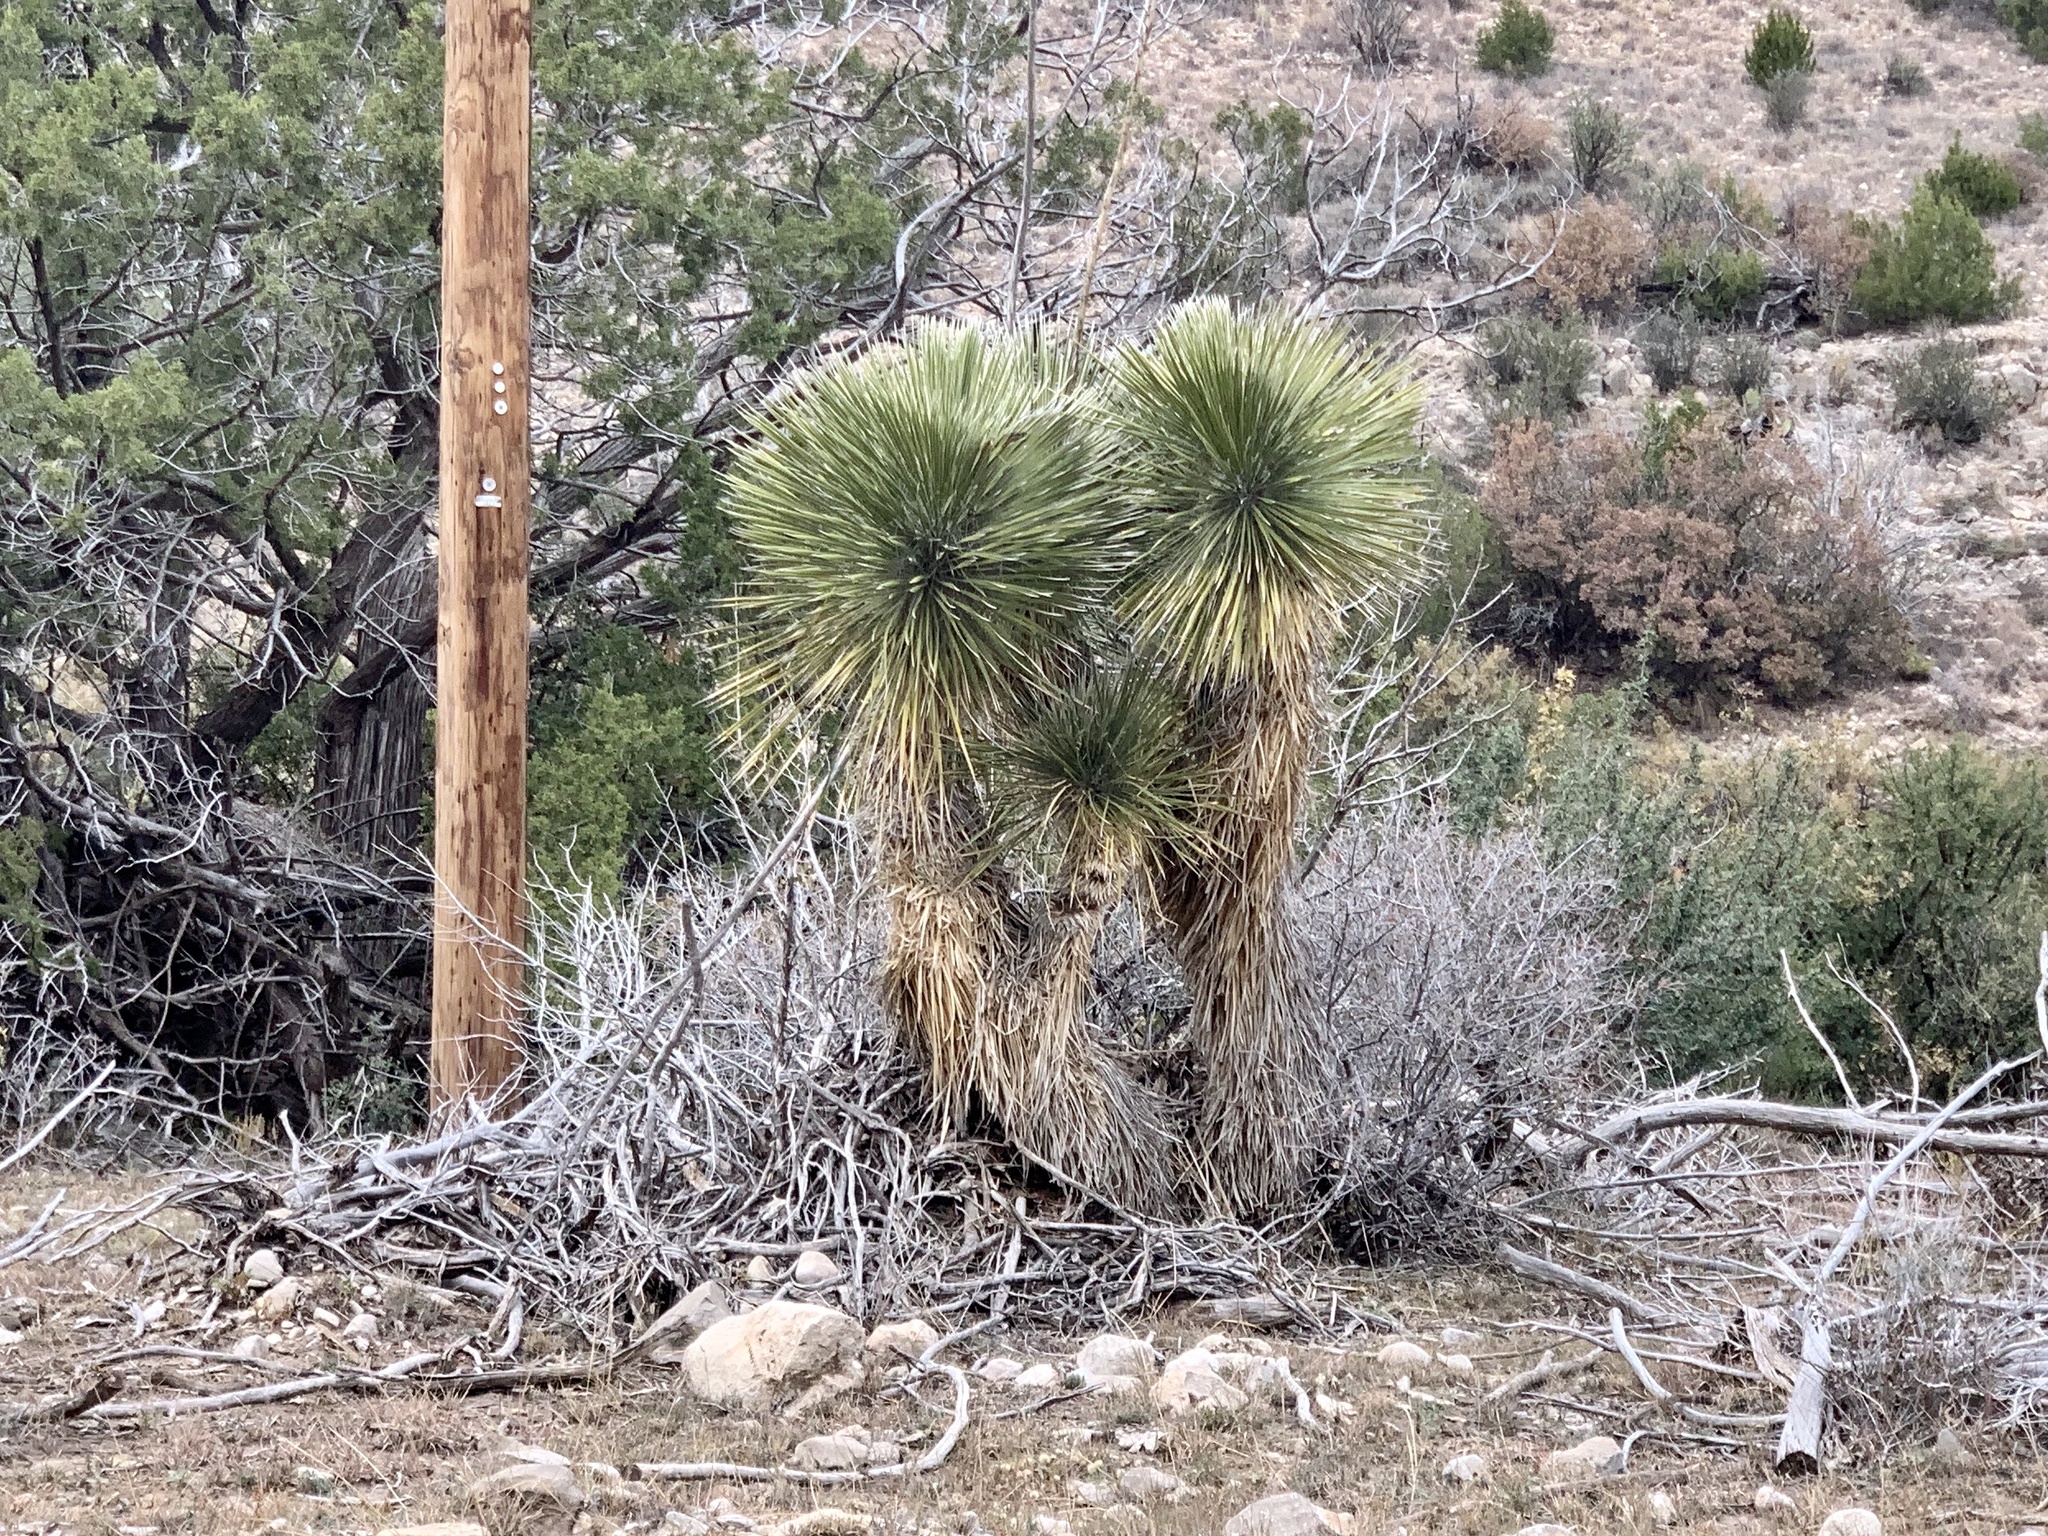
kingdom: Plantae
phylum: Tracheophyta
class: Liliopsida
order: Asparagales
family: Asparagaceae
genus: Yucca
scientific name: Yucca elata
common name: Palmella
